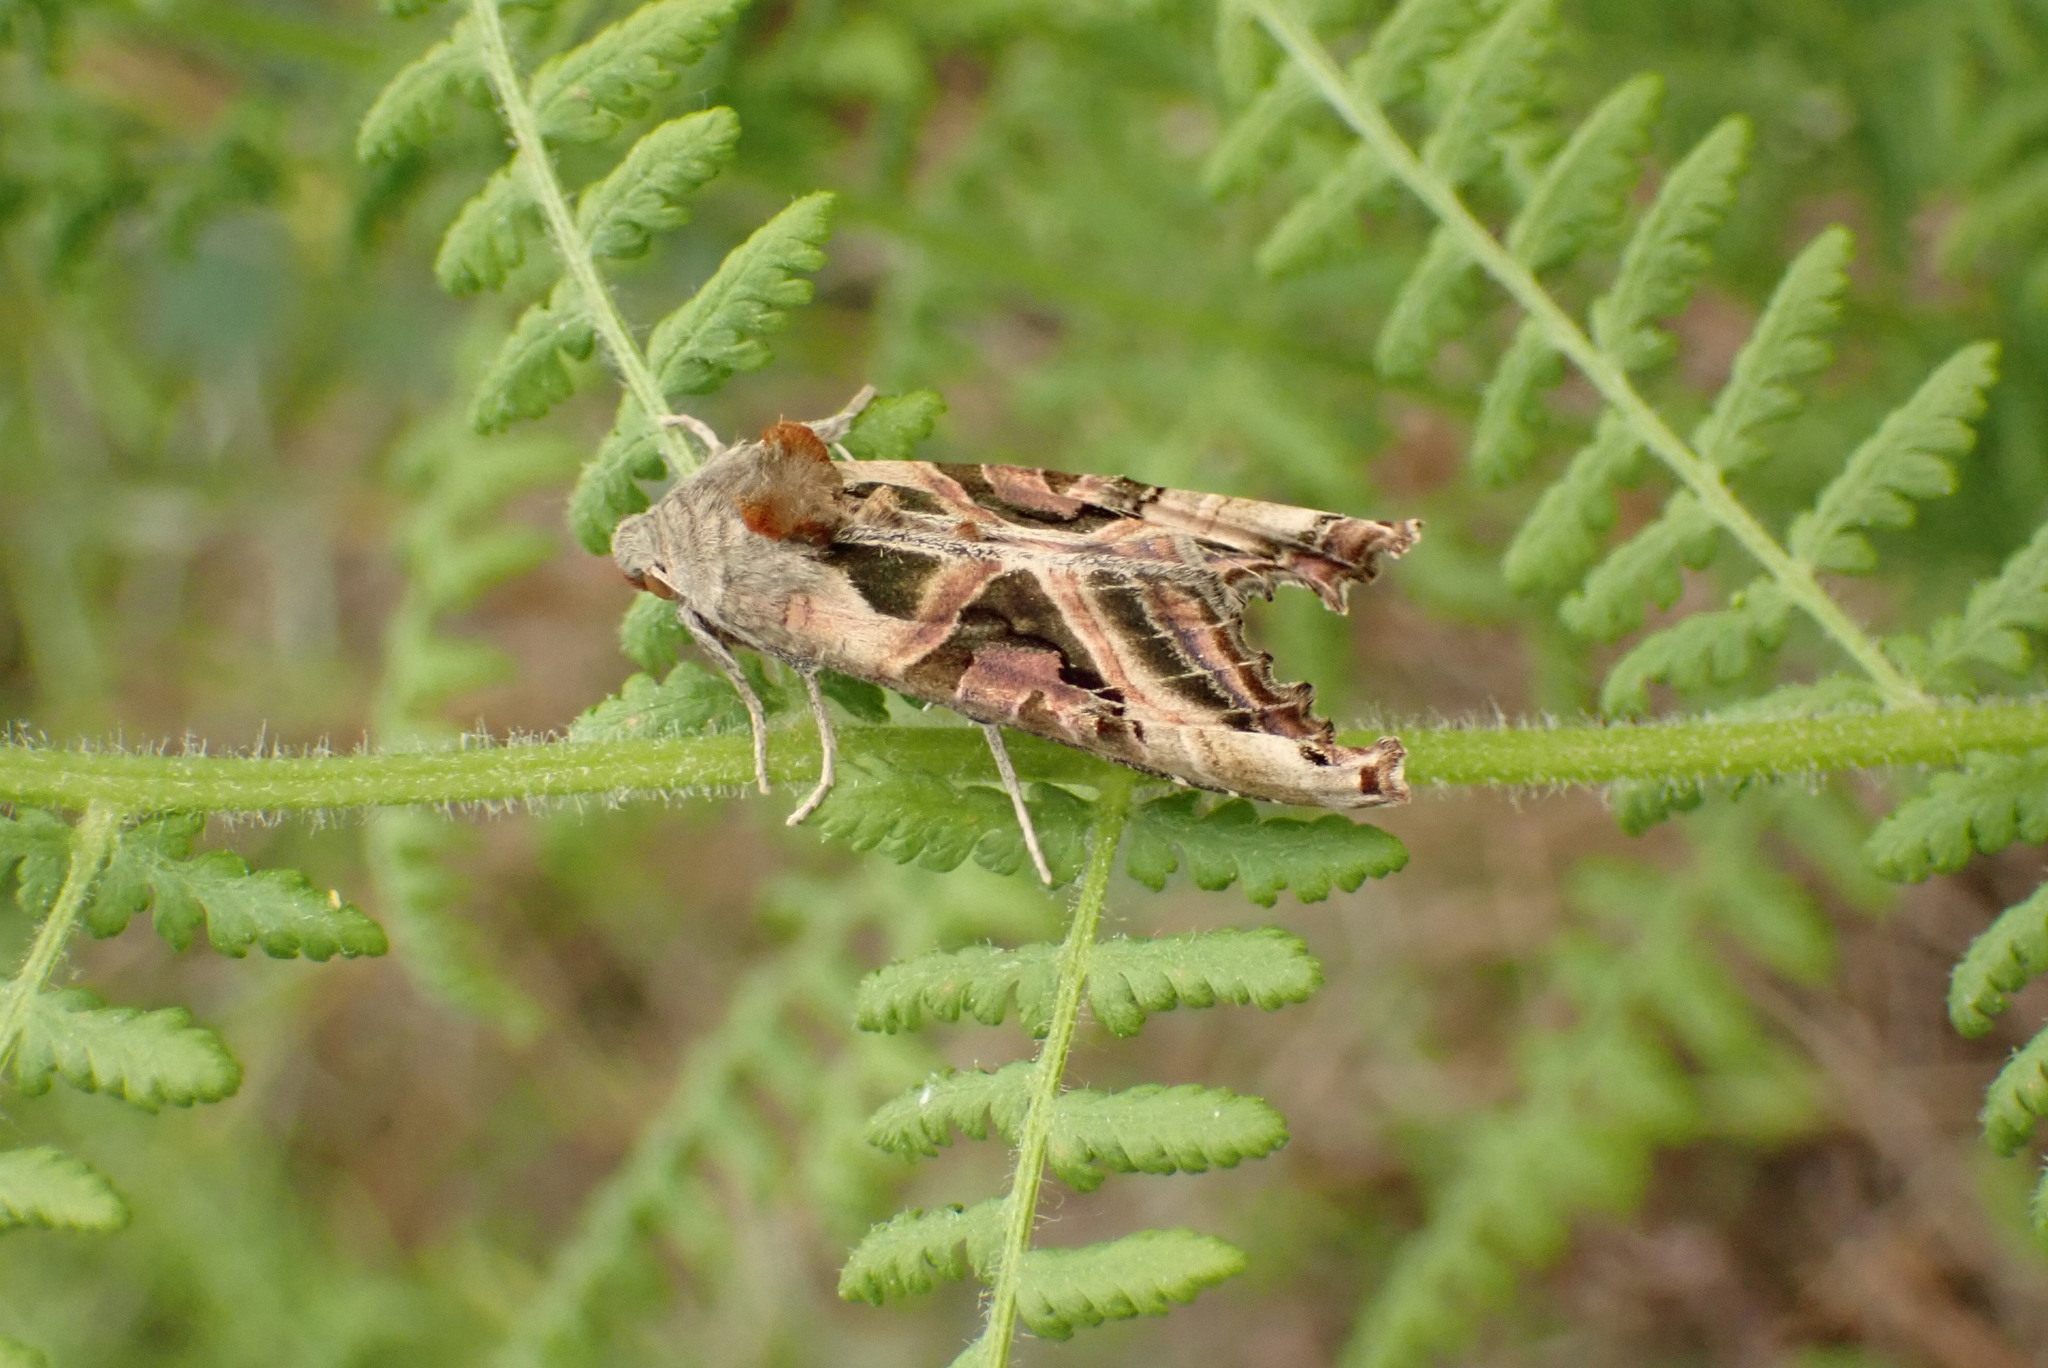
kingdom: Animalia
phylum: Arthropoda
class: Insecta
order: Lepidoptera
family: Noctuidae
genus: Phlogophora
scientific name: Phlogophora iris
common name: Olive angle shades
